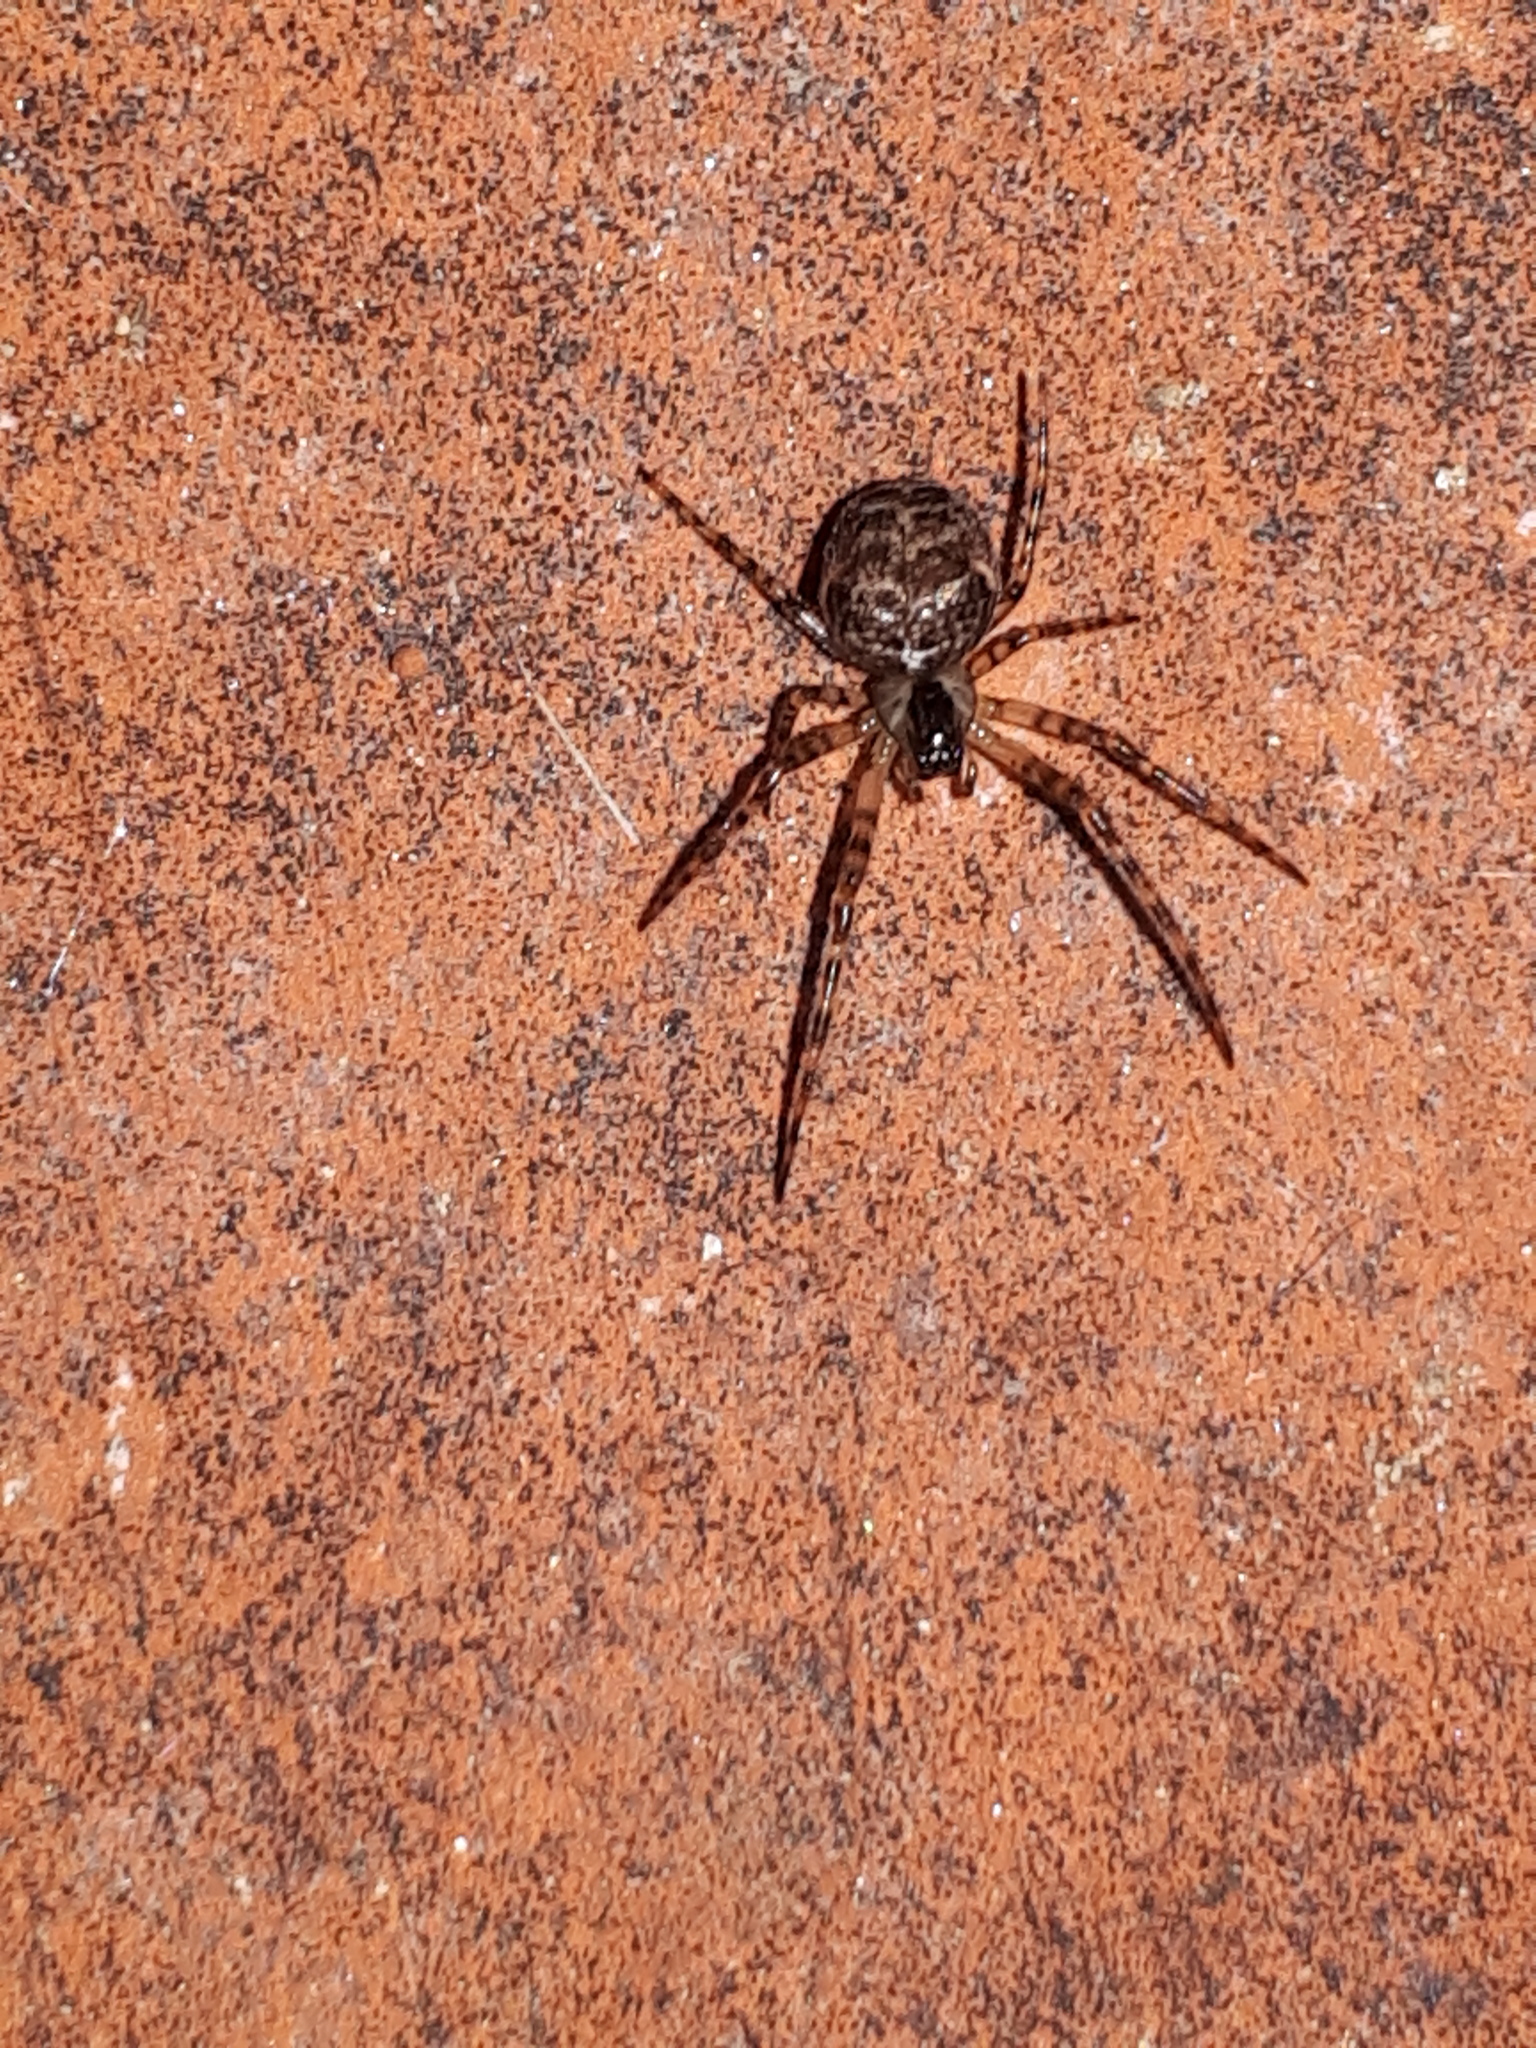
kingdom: Animalia
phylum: Arthropoda
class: Arachnida
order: Araneae
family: Tetragnathidae
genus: Metellina
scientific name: Metellina merianae
